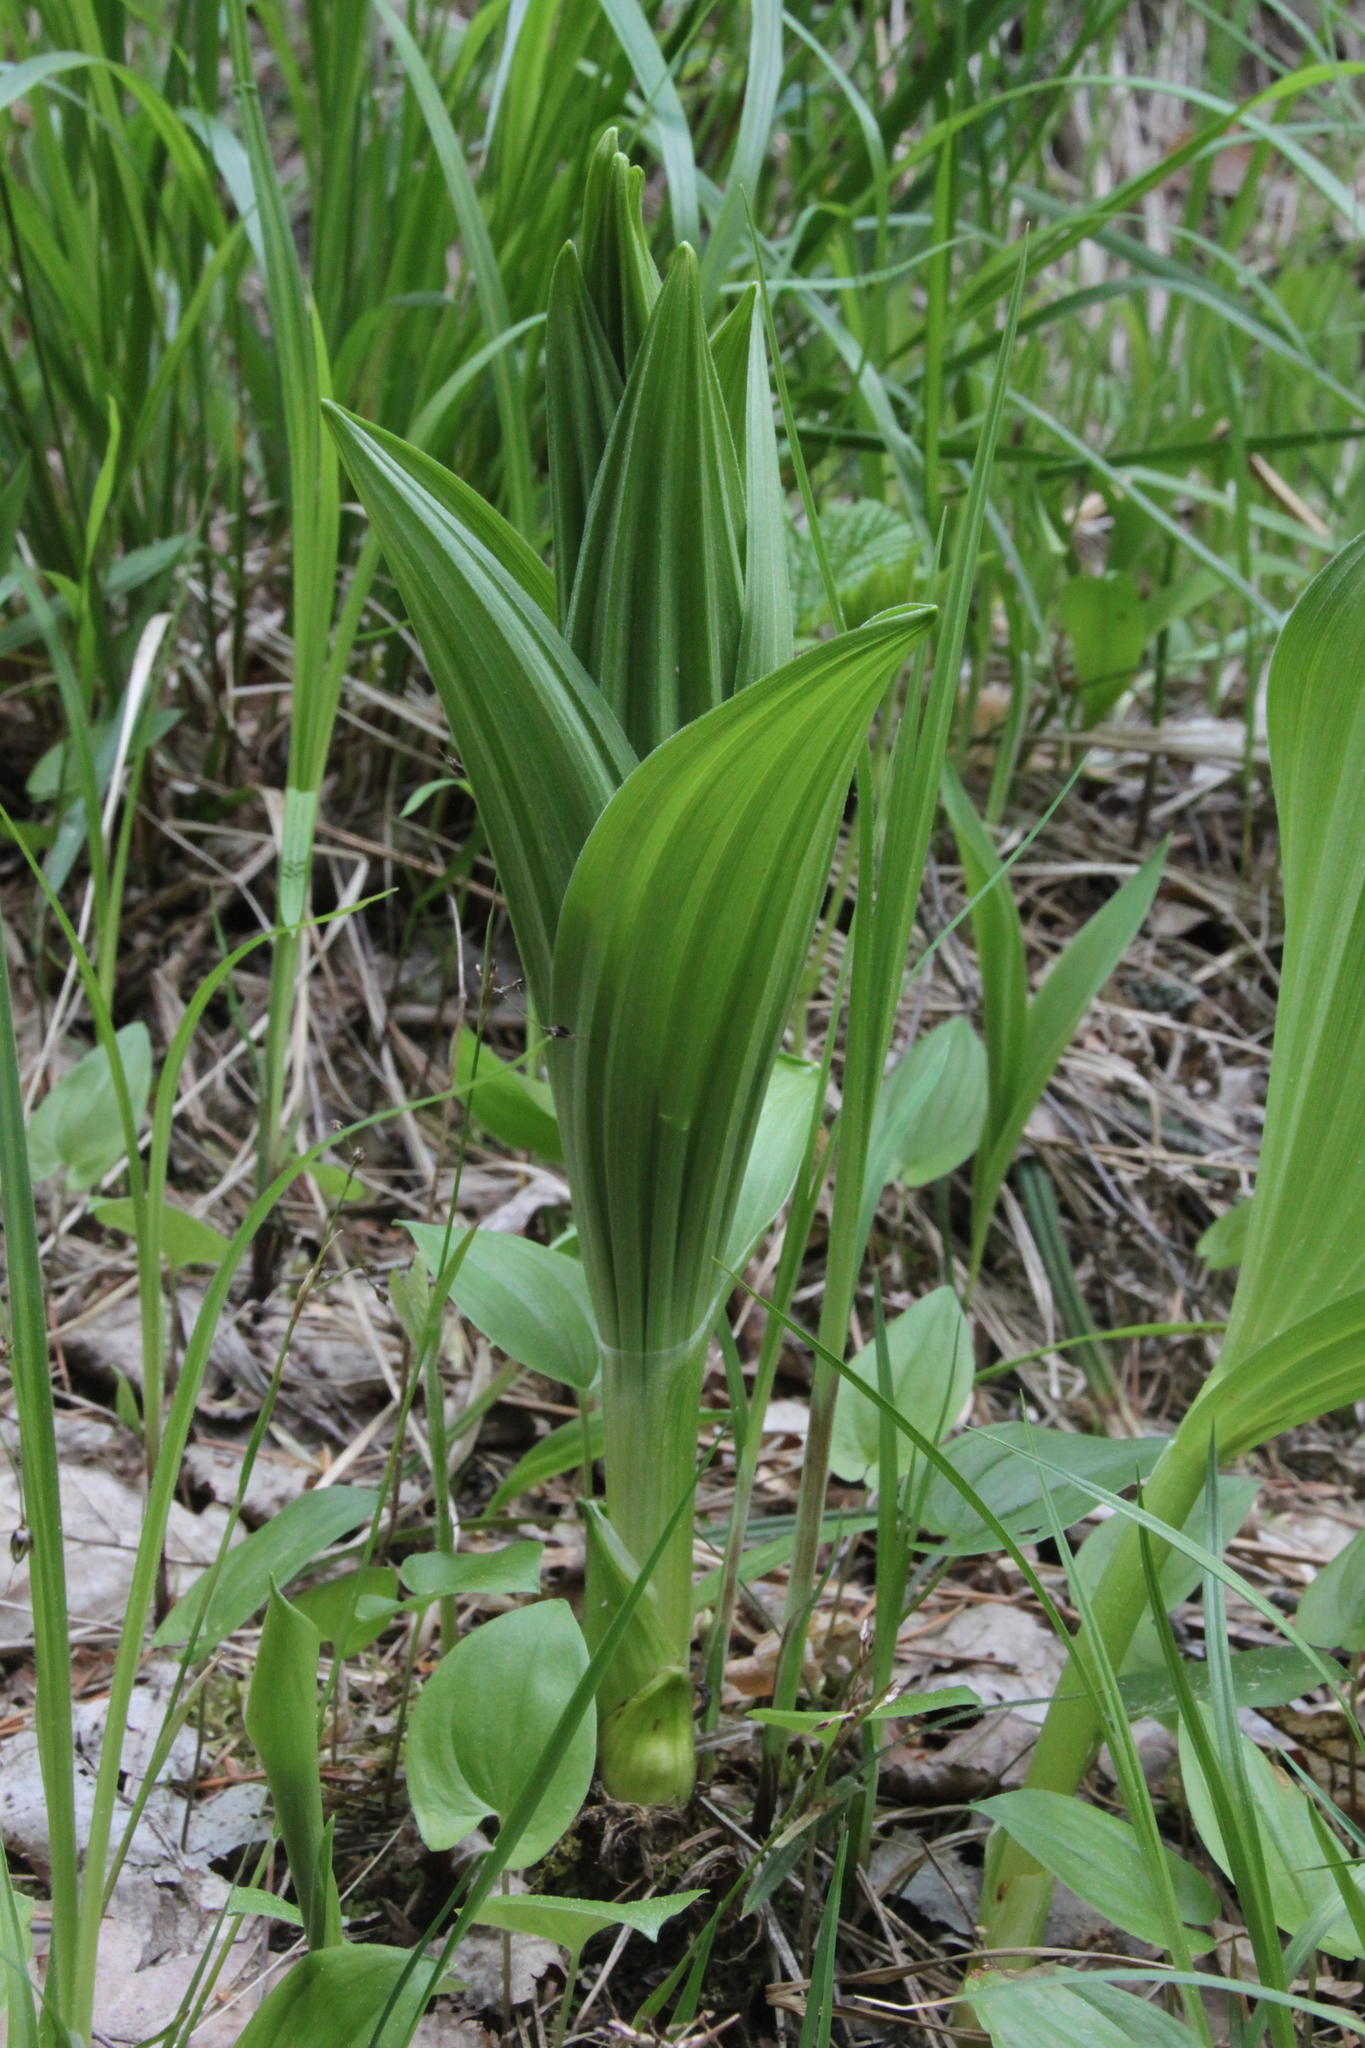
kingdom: Plantae
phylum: Tracheophyta
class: Liliopsida
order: Liliales
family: Melanthiaceae
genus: Veratrum
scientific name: Veratrum lobelianum
